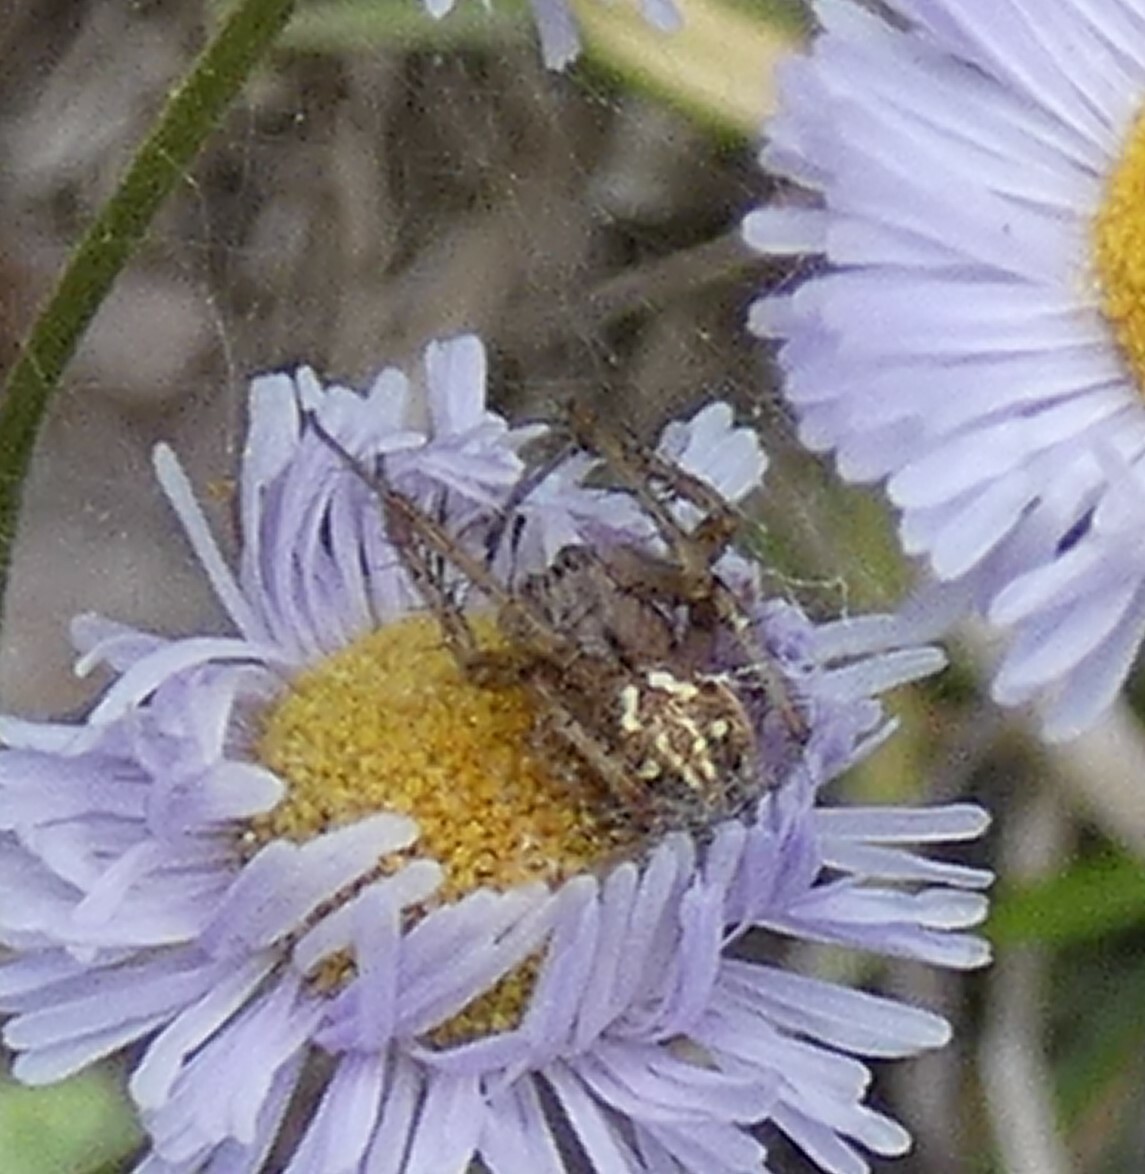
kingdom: Animalia
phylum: Arthropoda
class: Arachnida
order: Araneae
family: Araneidae
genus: Neoscona
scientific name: Neoscona arabesca
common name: Orb weavers
